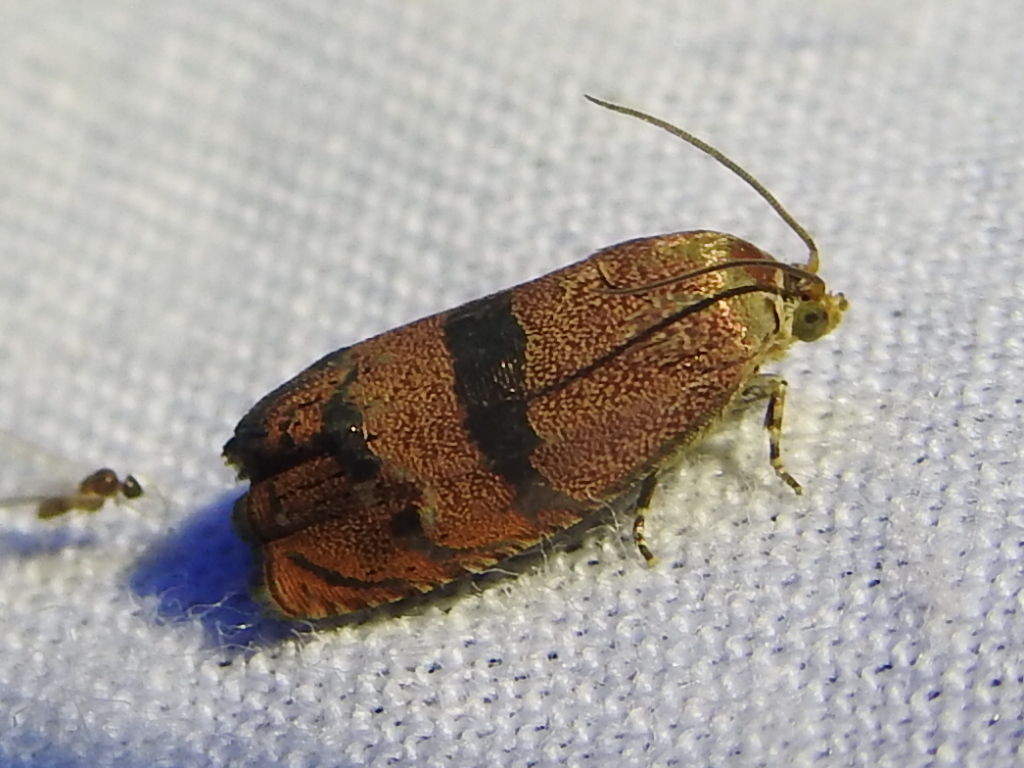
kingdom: Animalia
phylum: Arthropoda
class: Insecta
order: Lepidoptera
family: Tortricidae
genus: Cydia
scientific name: Cydia latiferreana
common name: Filbertworm moth
